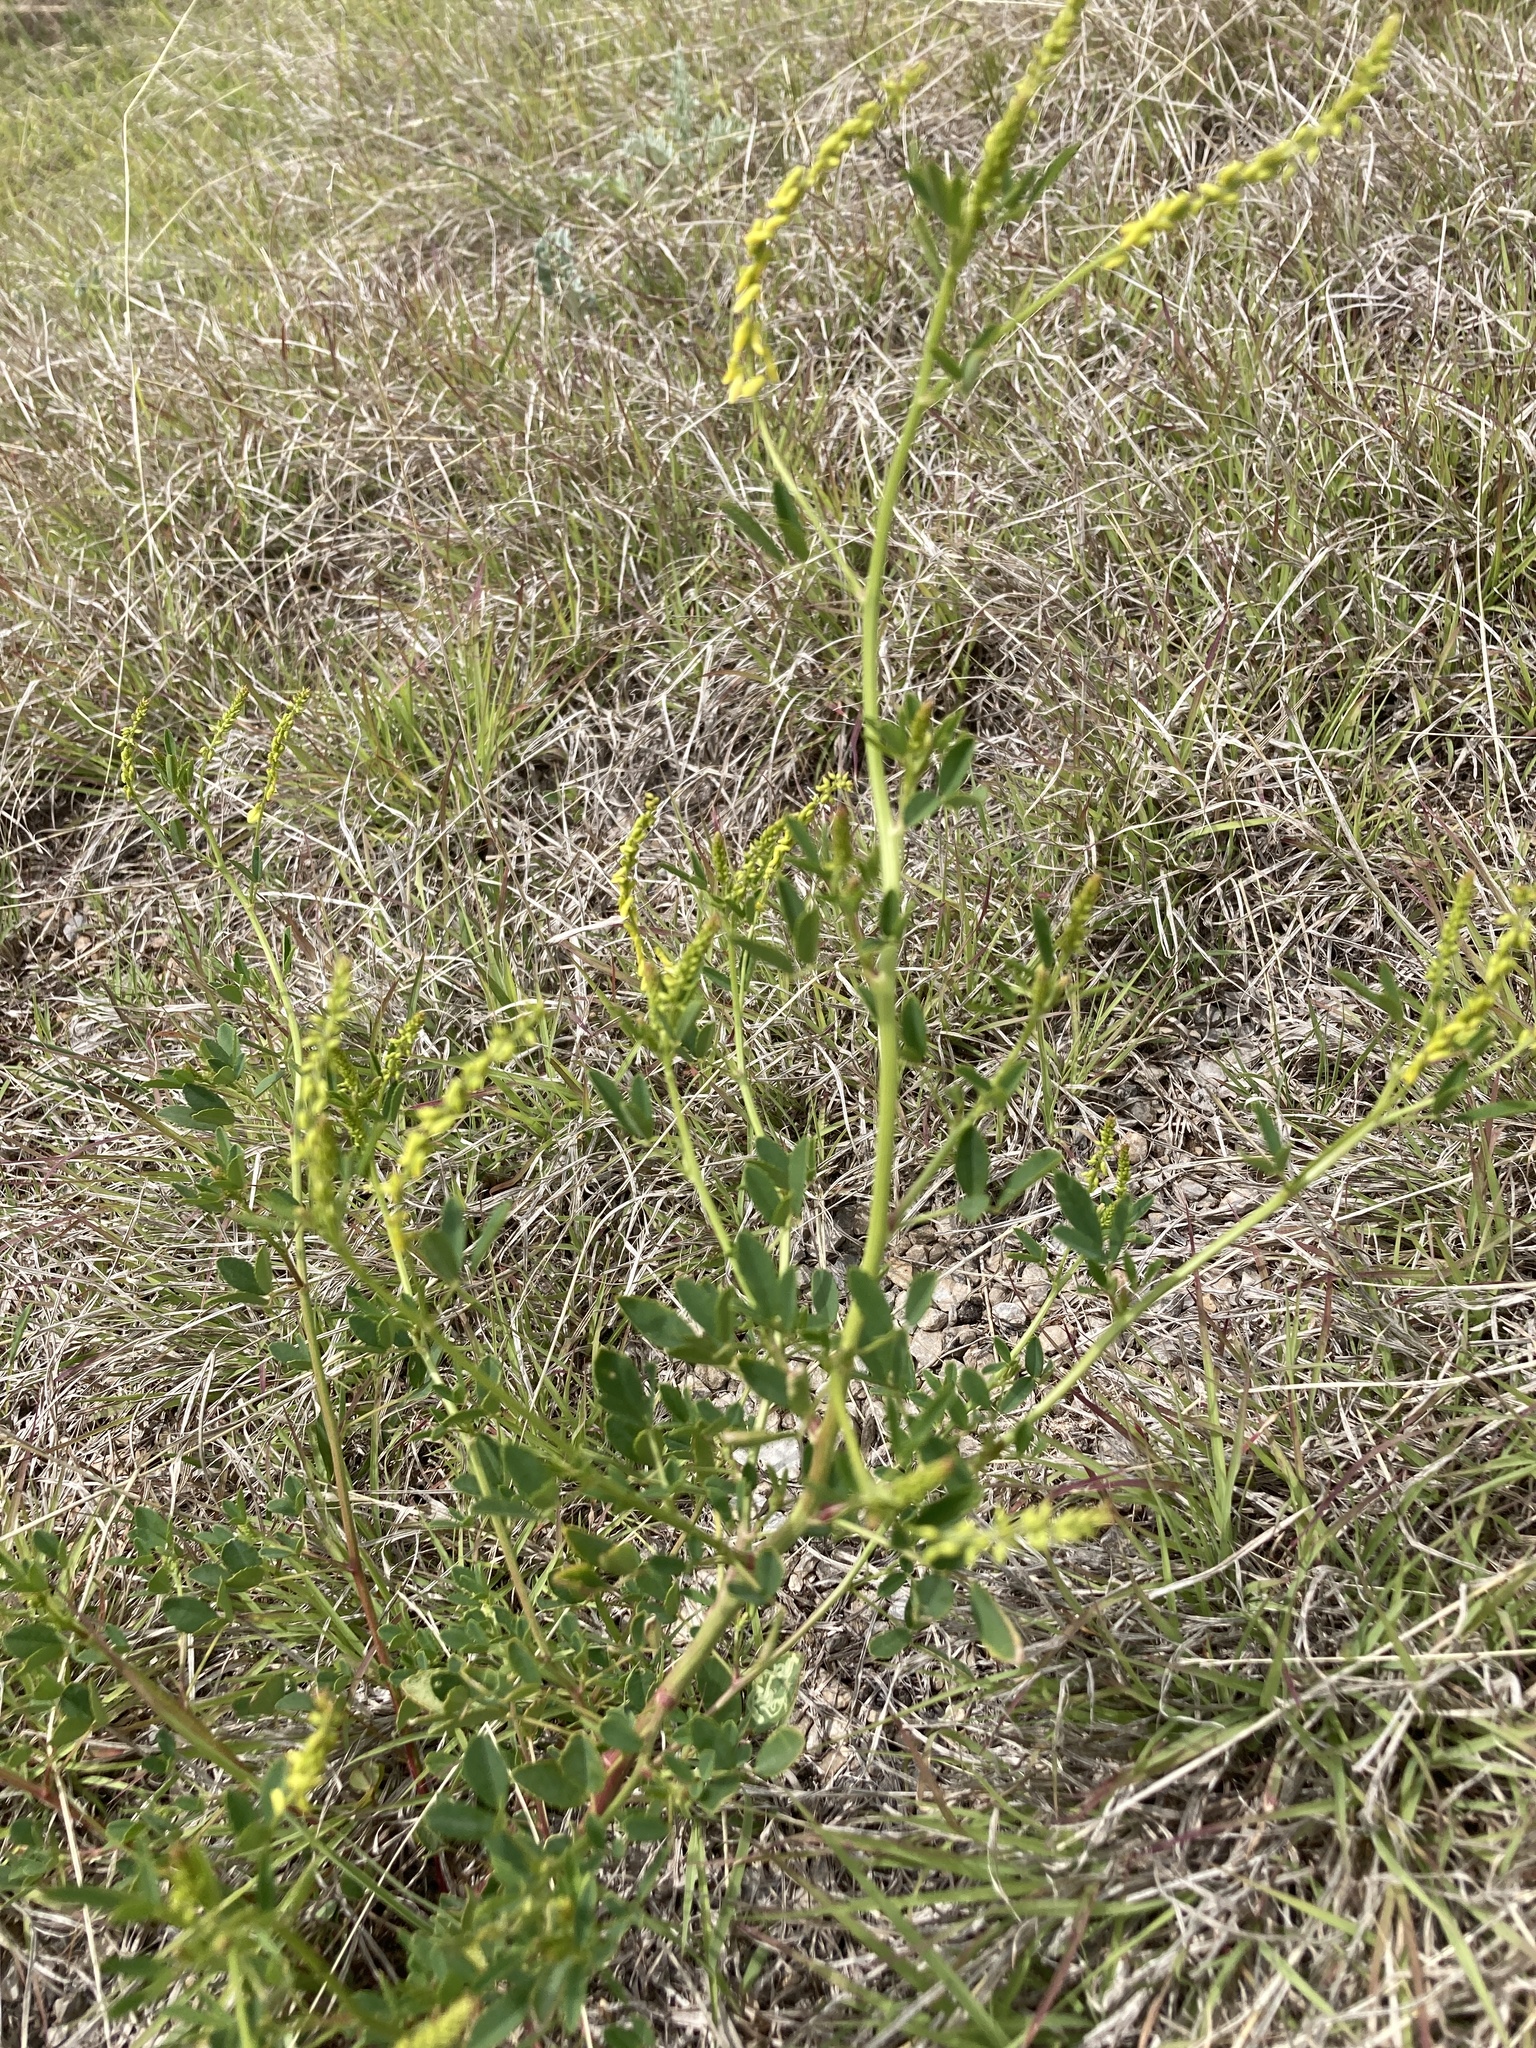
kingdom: Plantae
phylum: Tracheophyta
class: Magnoliopsida
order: Fabales
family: Fabaceae
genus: Melilotus
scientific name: Melilotus officinalis
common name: Sweetclover
